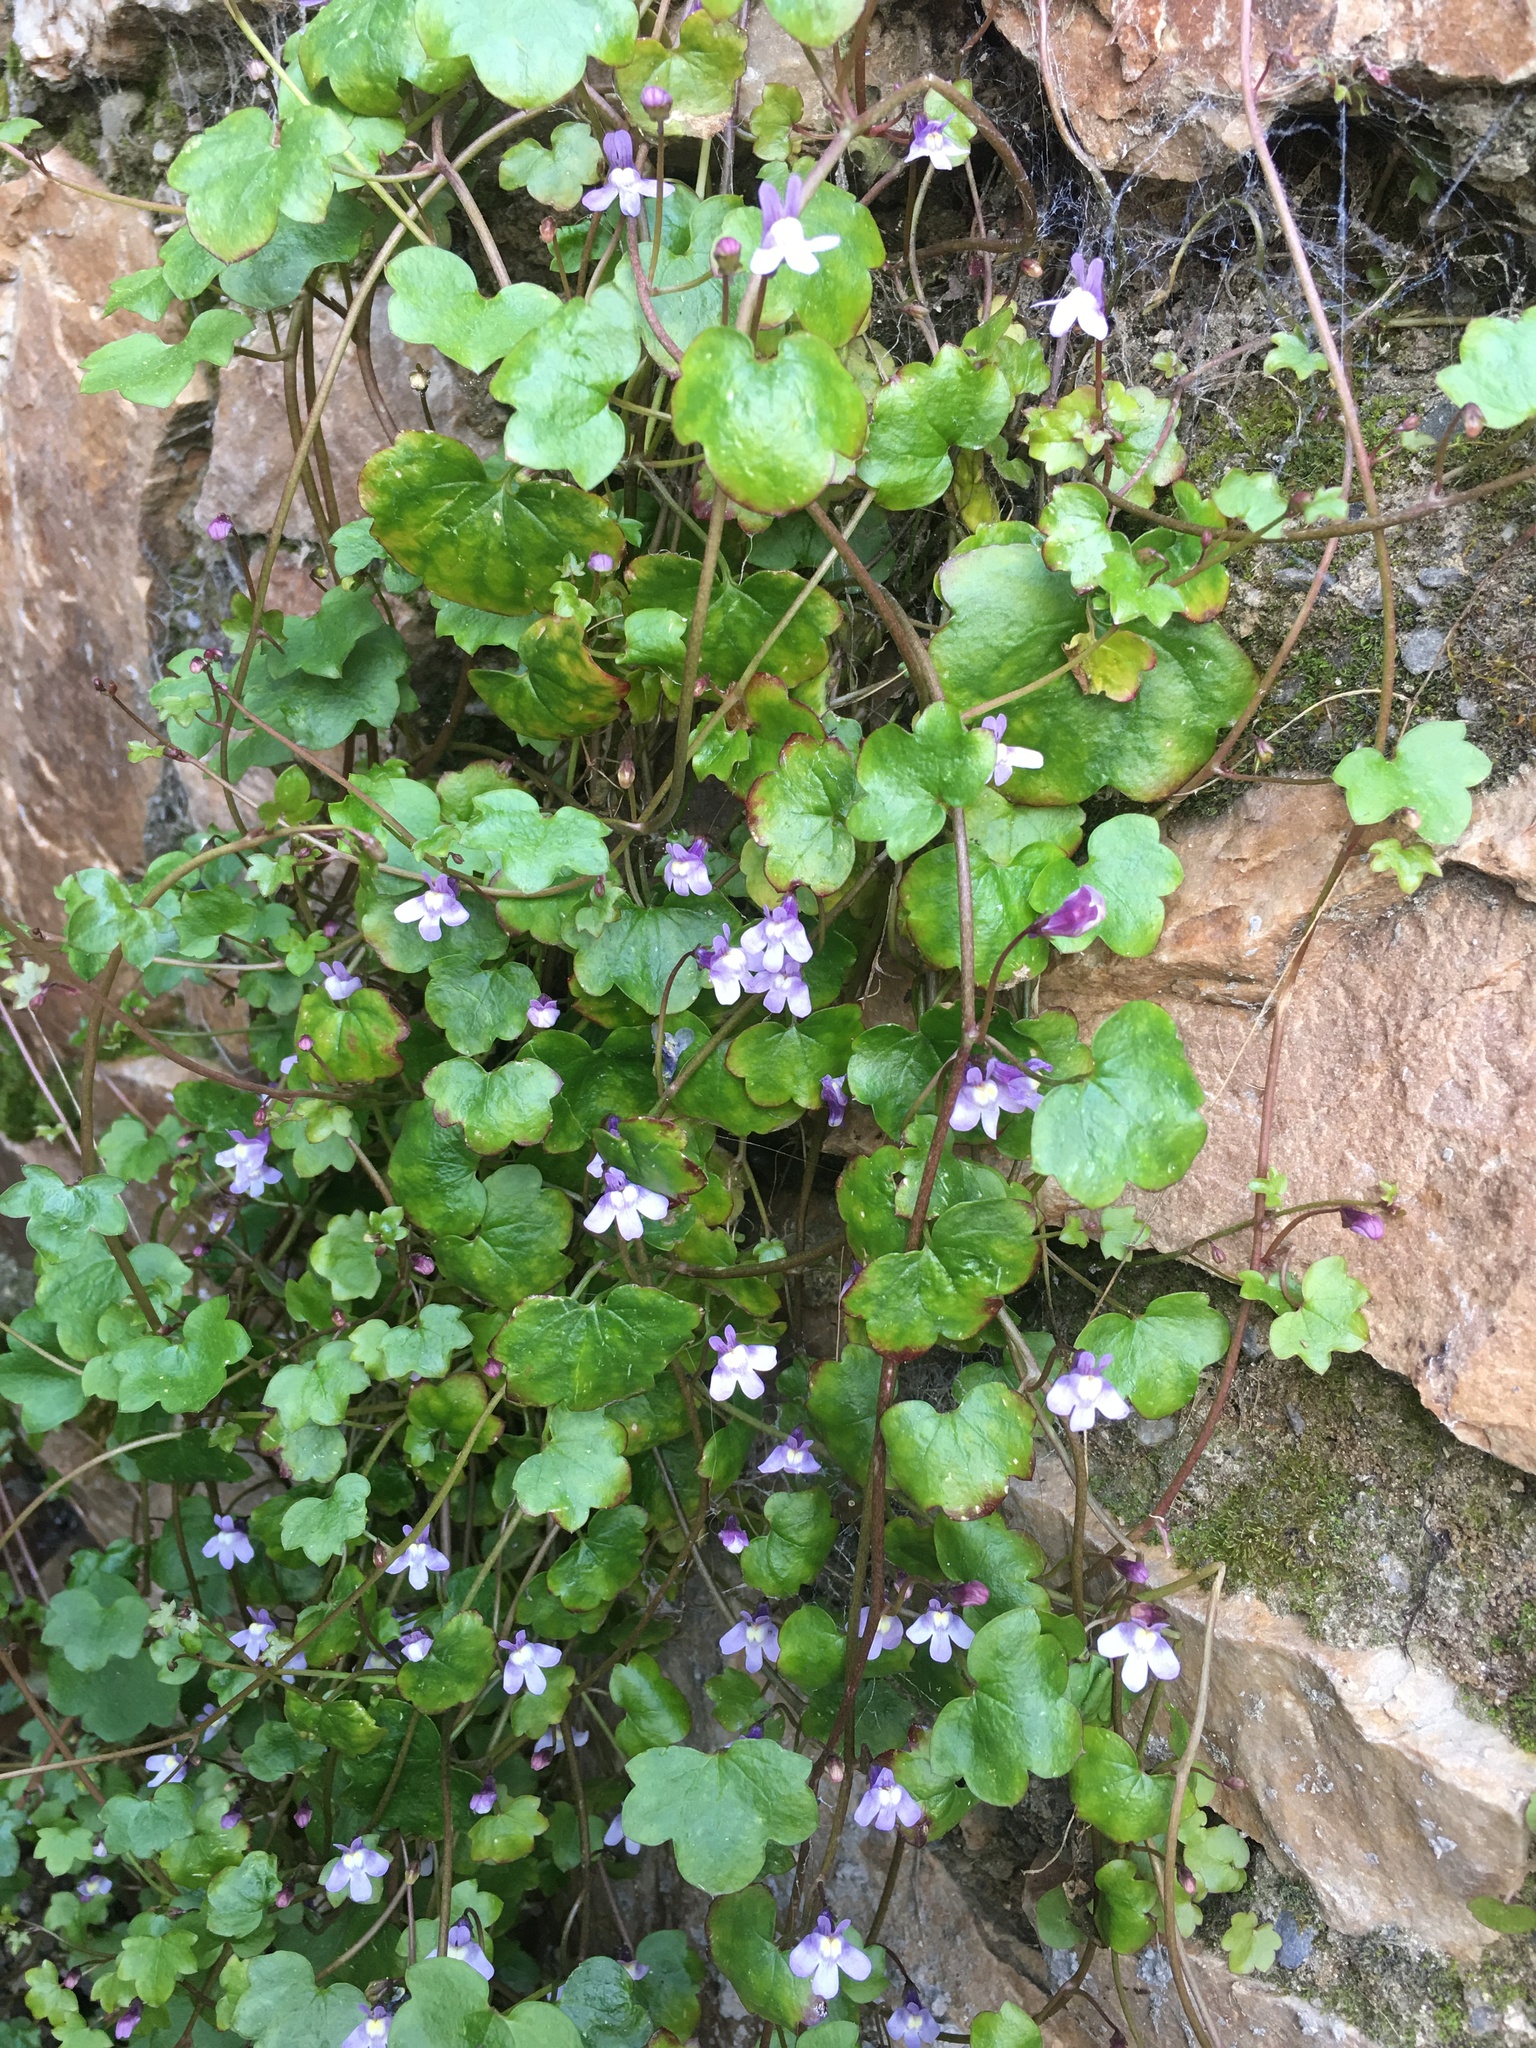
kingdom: Plantae
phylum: Tracheophyta
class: Magnoliopsida
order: Lamiales
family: Plantaginaceae
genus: Cymbalaria
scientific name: Cymbalaria muralis
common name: Ivy-leaved toadflax
